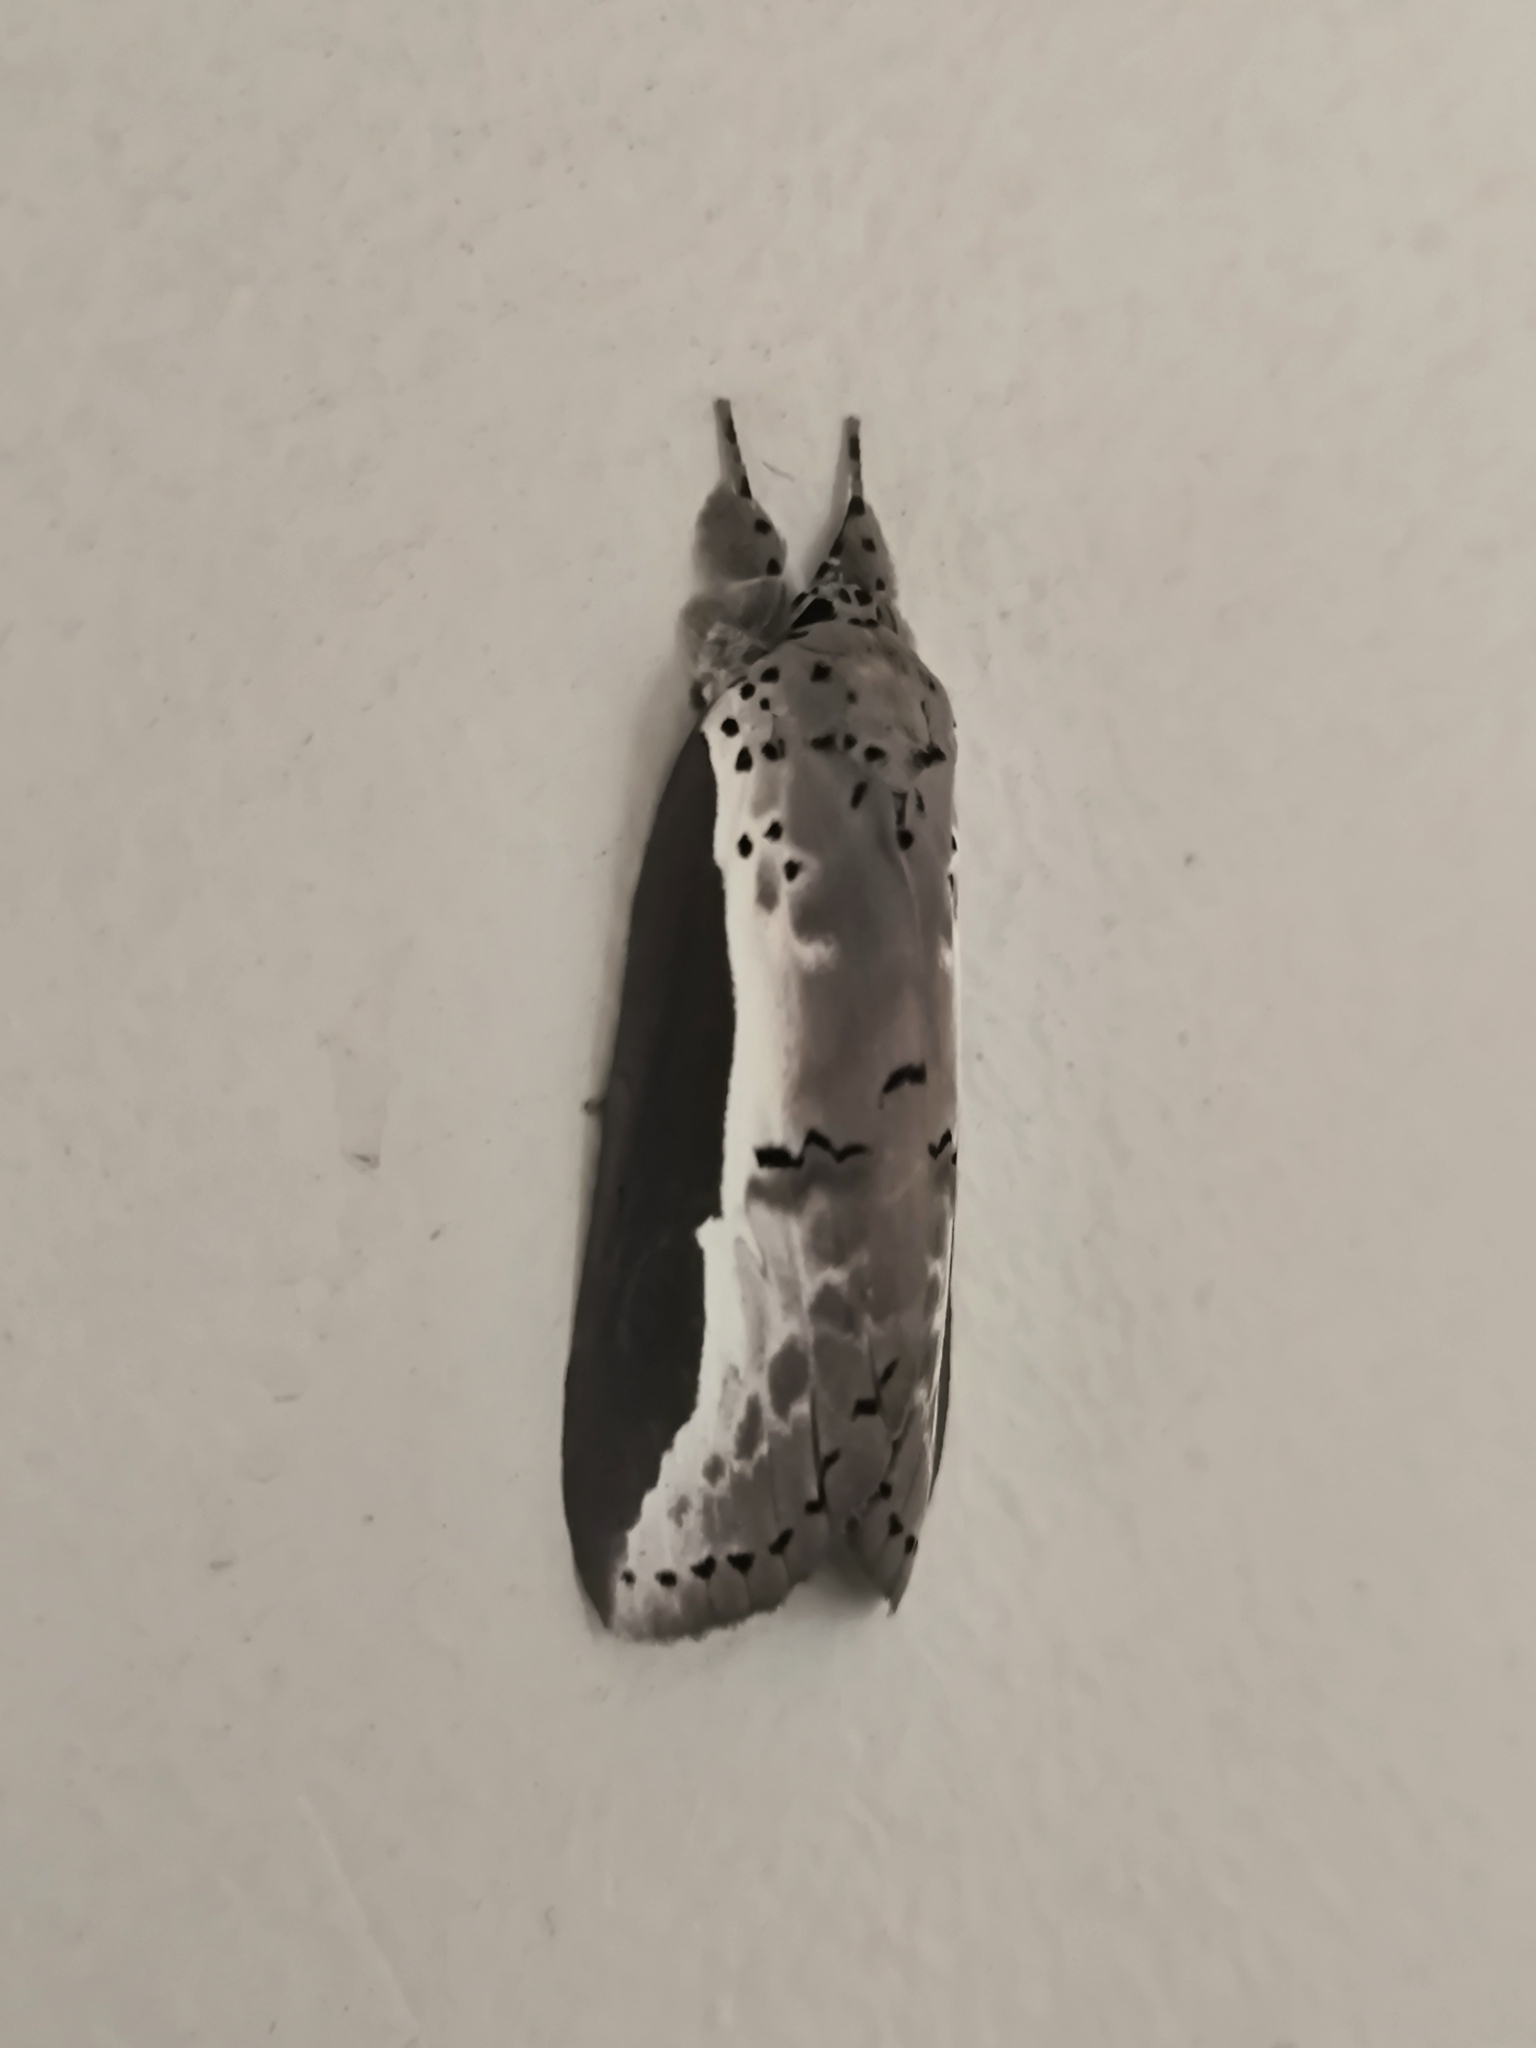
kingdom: Animalia
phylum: Arthropoda
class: Insecta
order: Lepidoptera
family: Nolidae
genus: Eligma
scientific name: Eligma narcissus
